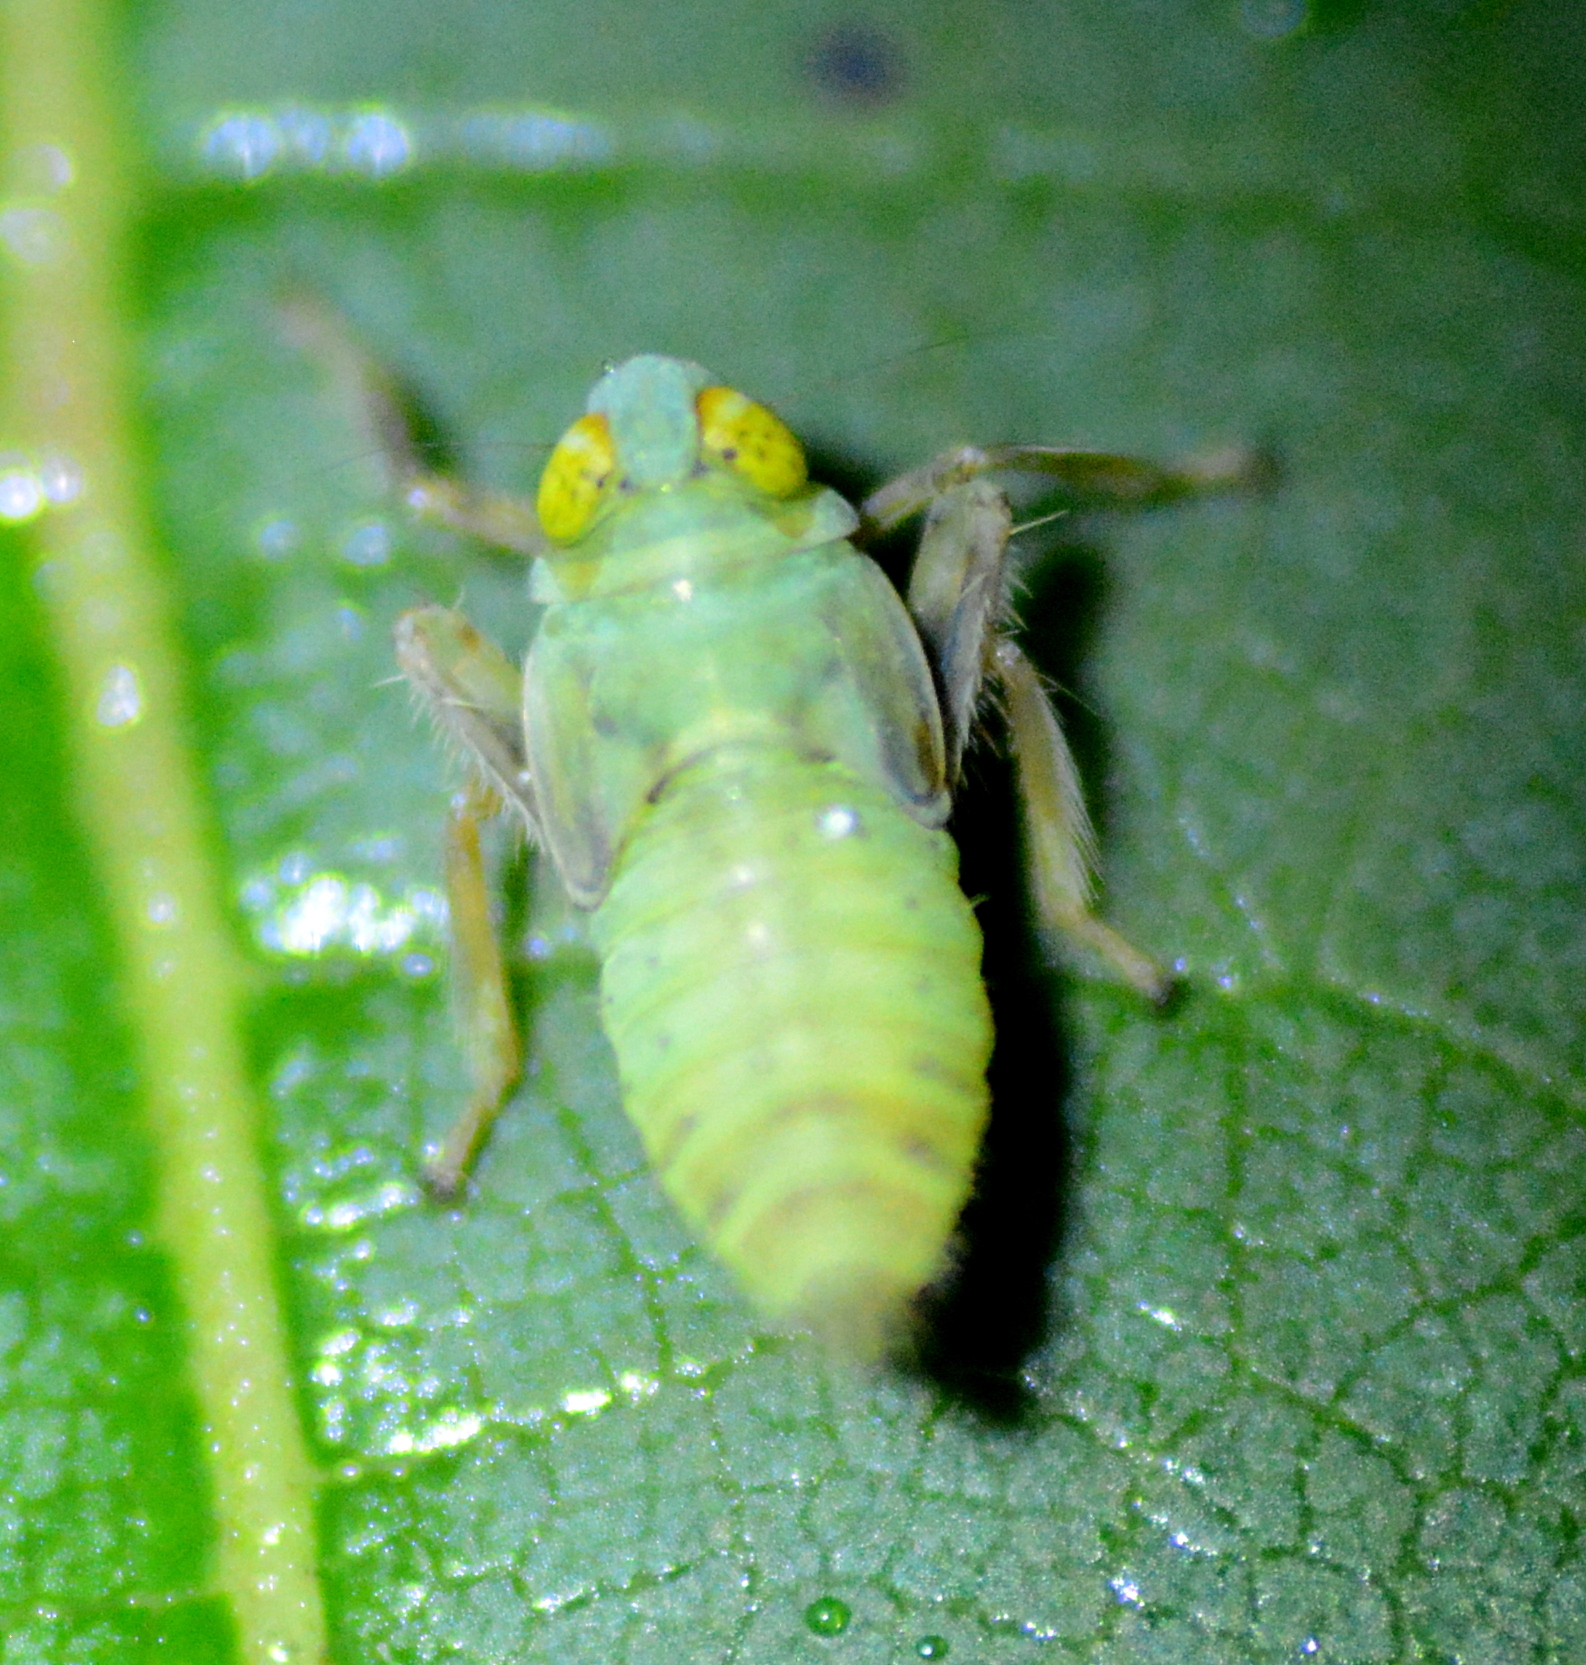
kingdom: Animalia
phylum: Arthropoda
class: Insecta
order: Hemiptera
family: Cicadellidae
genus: Jikradia
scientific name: Jikradia olitoria
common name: Coppery leafhopper
